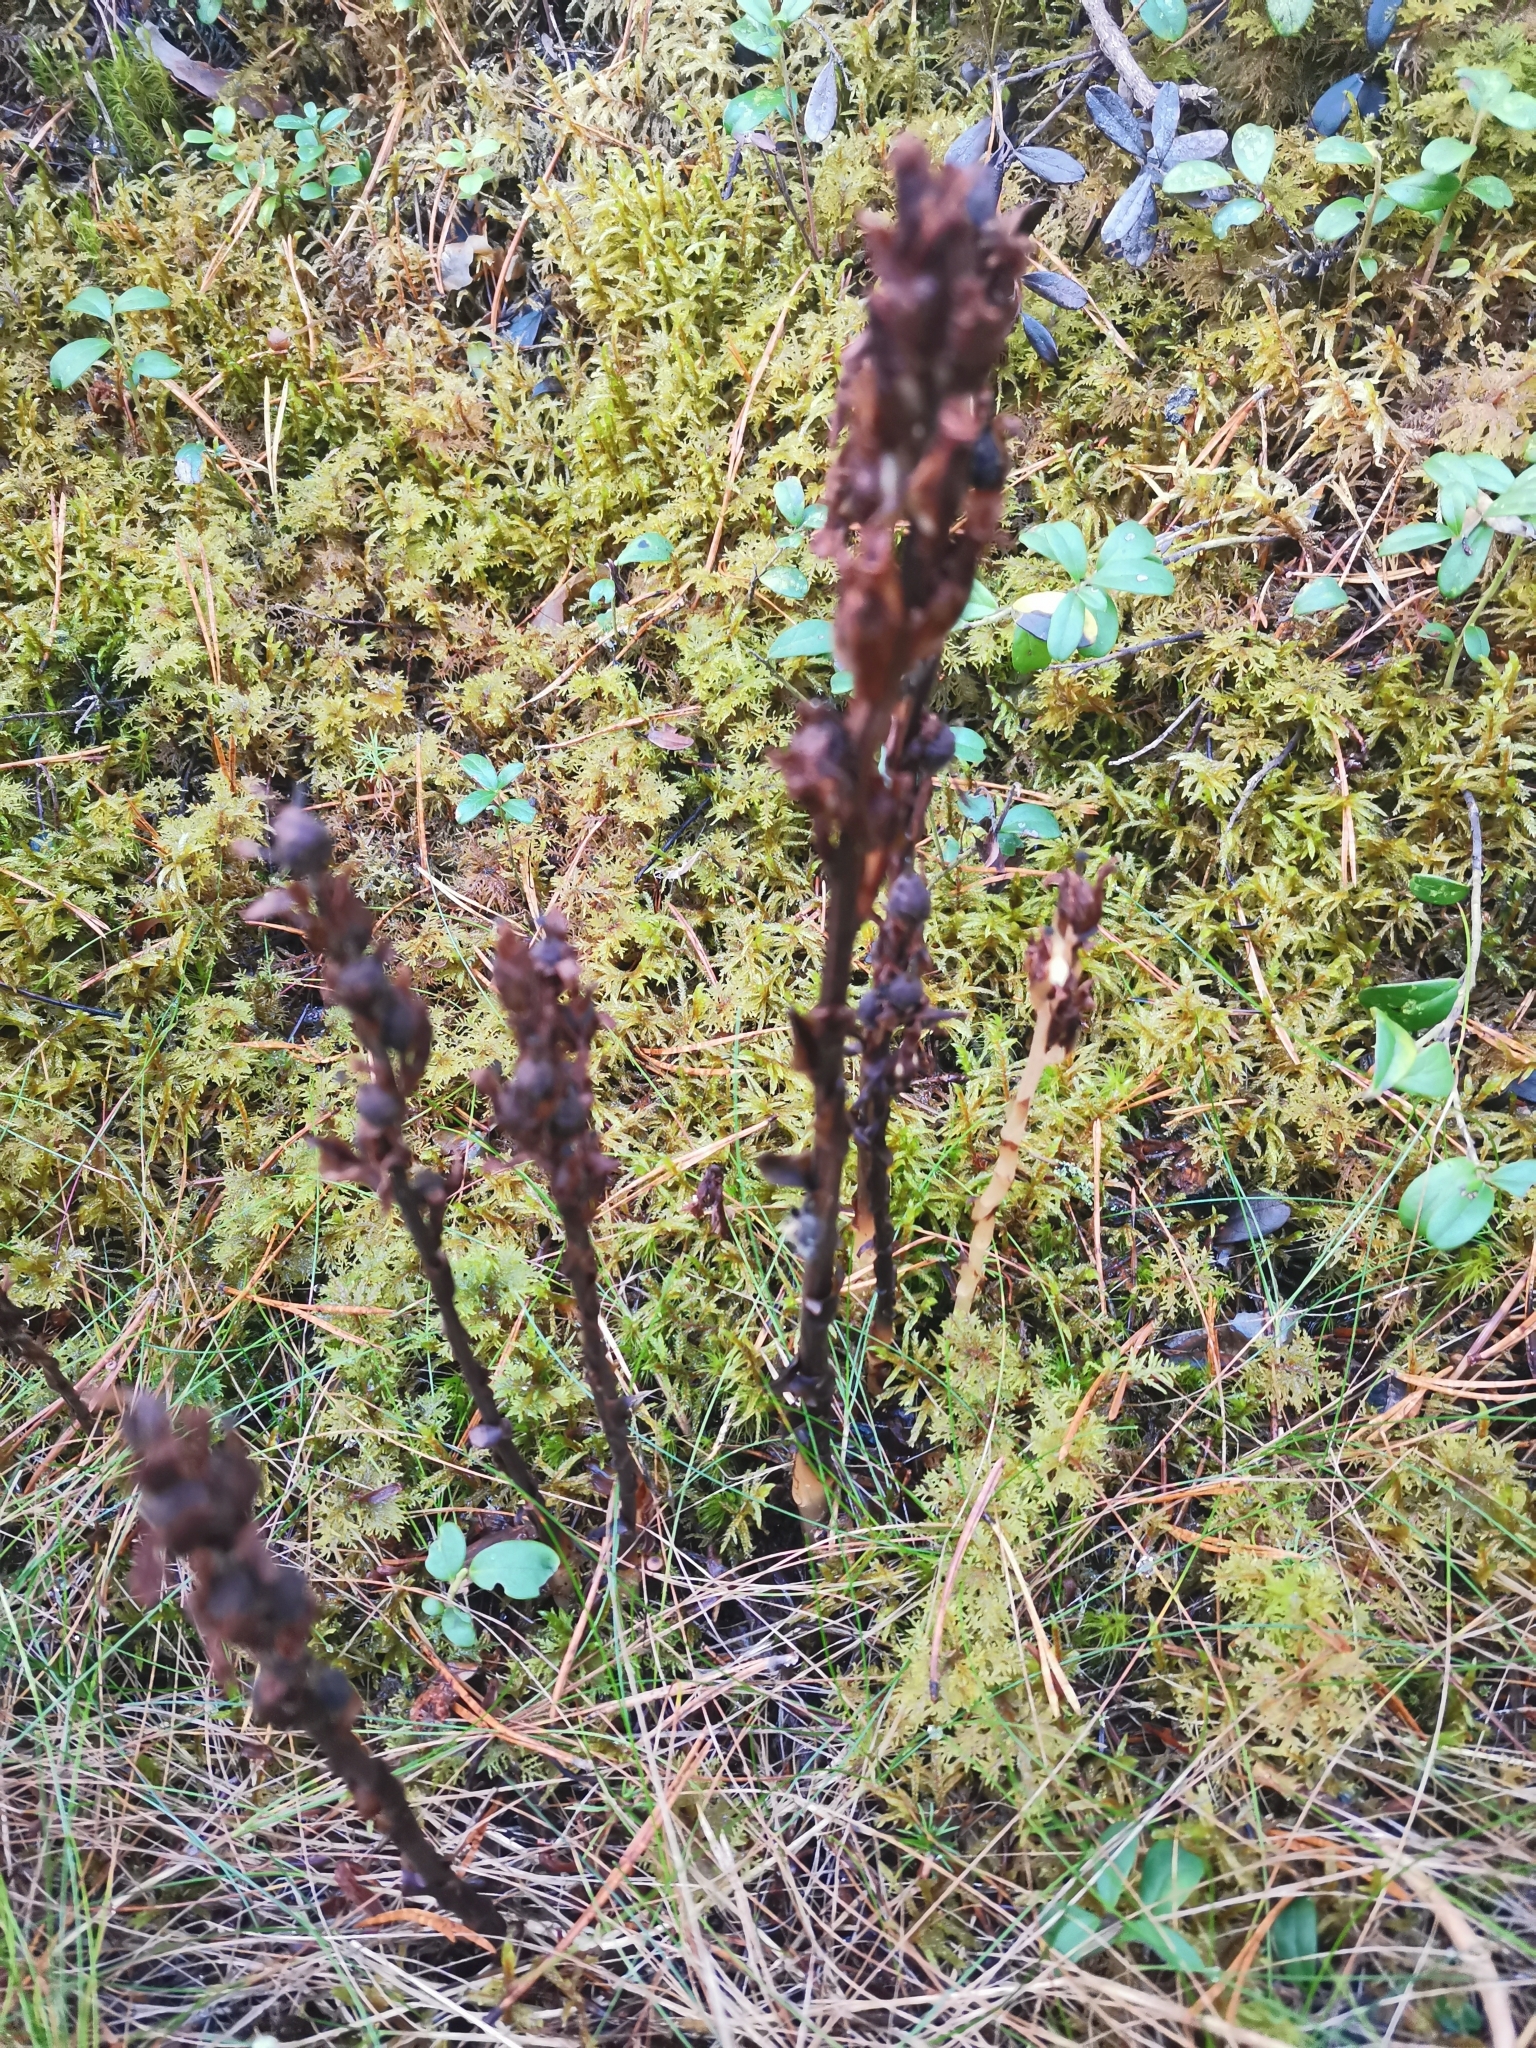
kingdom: Plantae
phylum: Tracheophyta
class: Magnoliopsida
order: Ericales
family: Ericaceae
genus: Hypopitys
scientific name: Hypopitys monotropa
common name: Yellow bird's-nest
